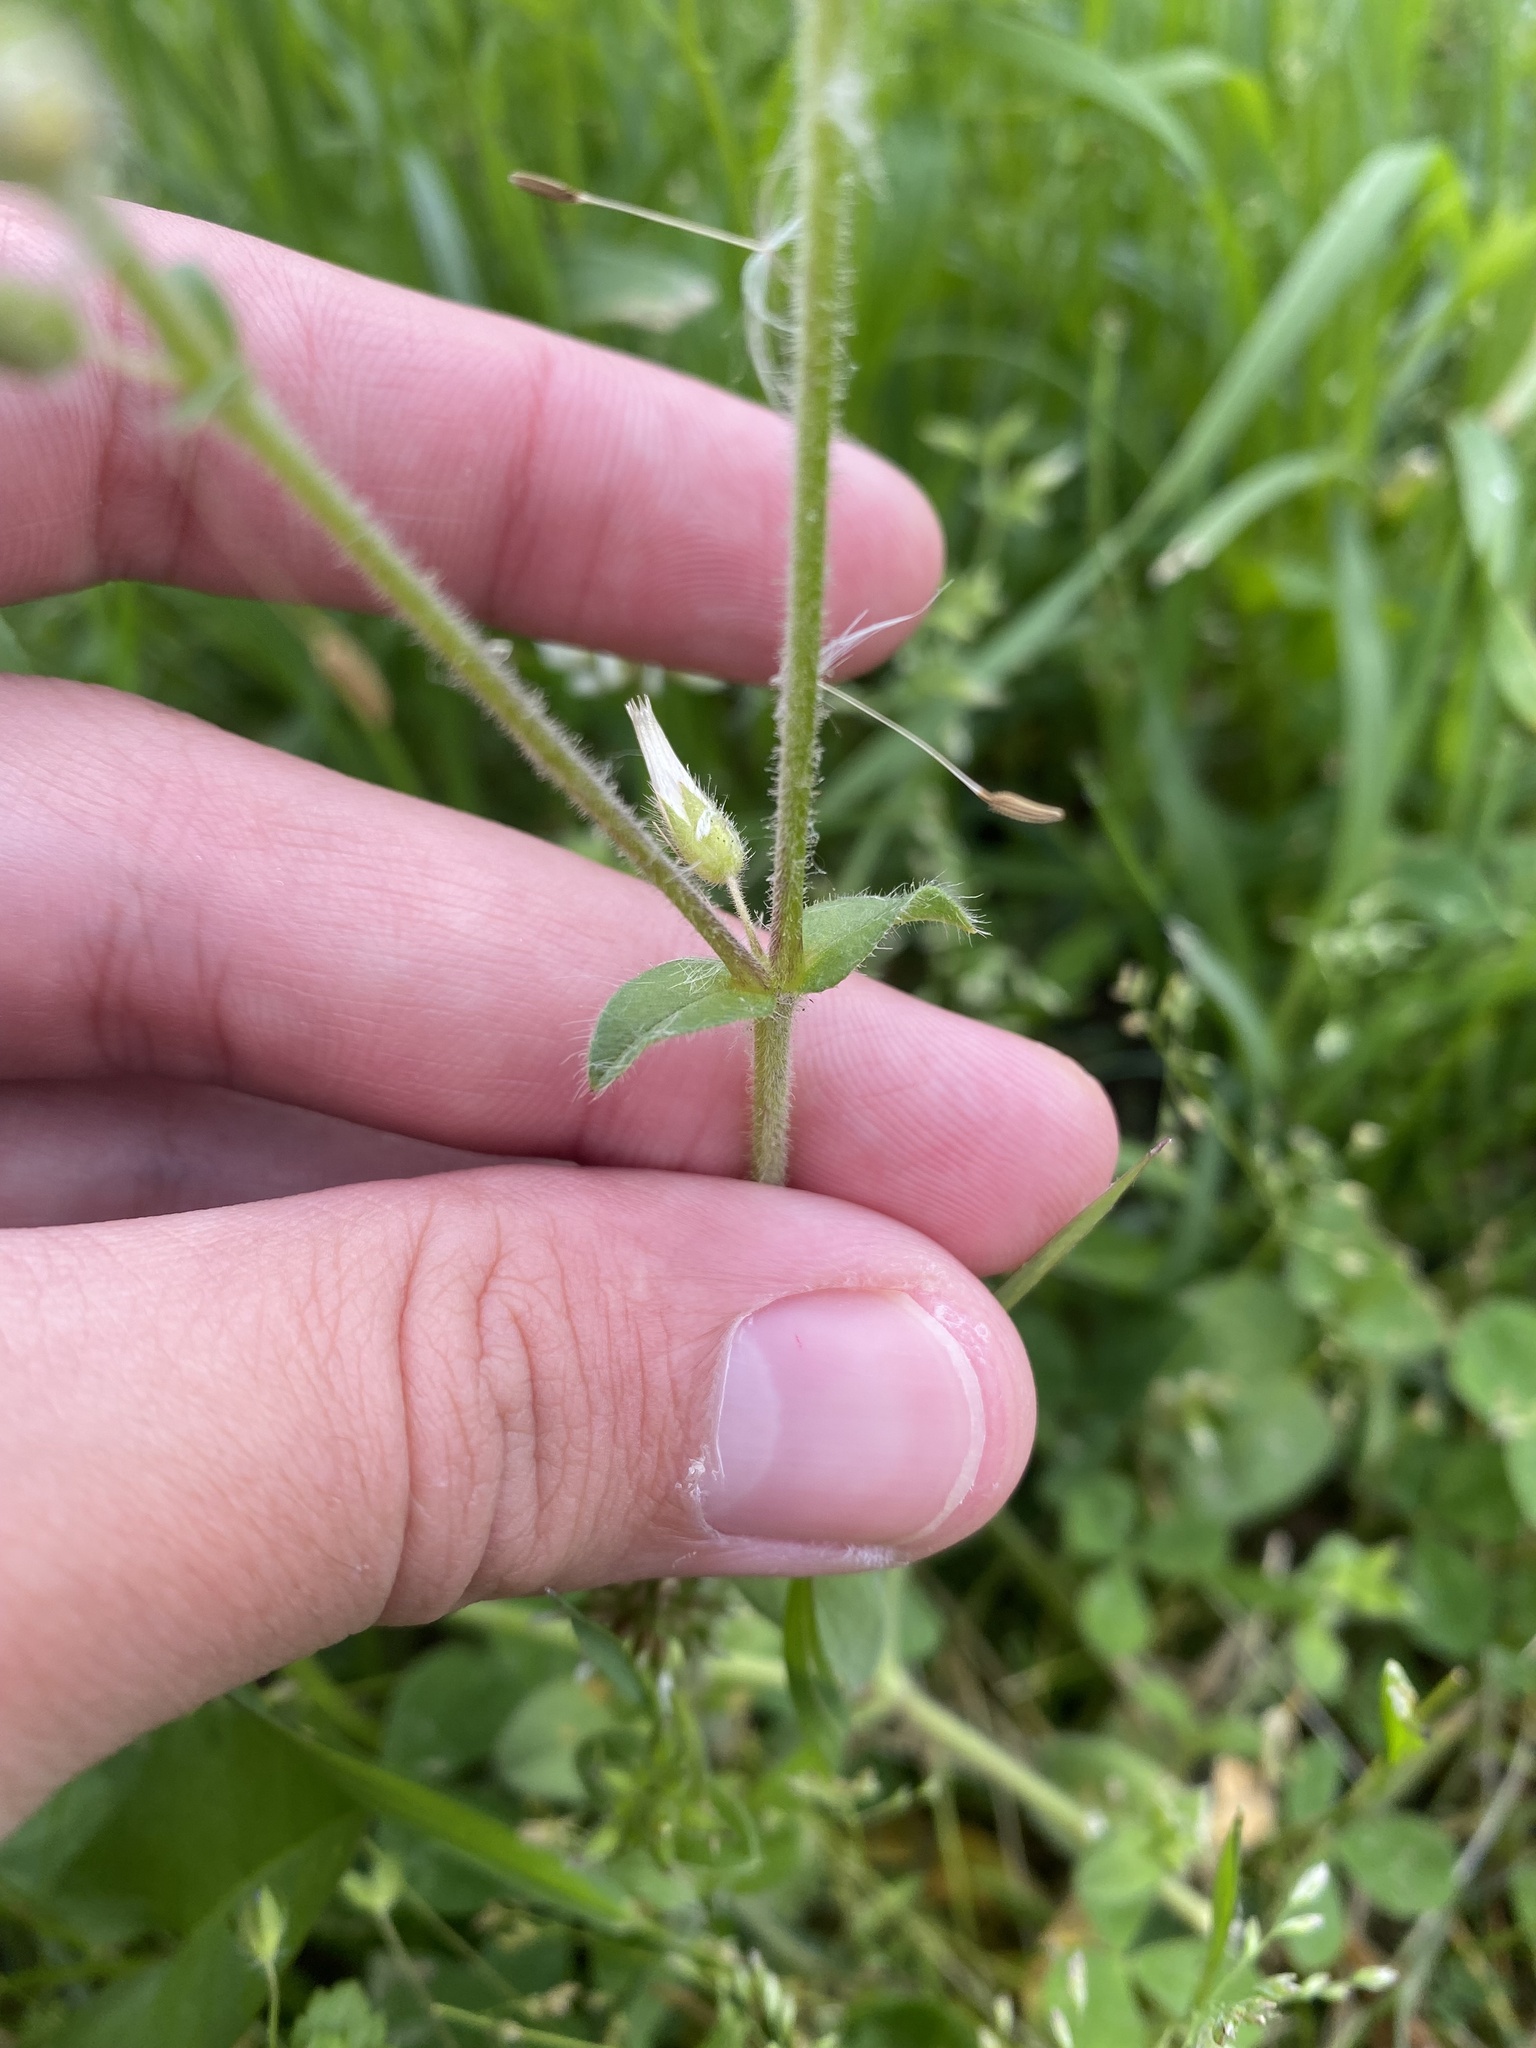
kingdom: Plantae
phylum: Tracheophyta
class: Magnoliopsida
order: Caryophyllales
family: Caryophyllaceae
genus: Cerastium
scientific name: Cerastium glomeratum
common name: Sticky chickweed
